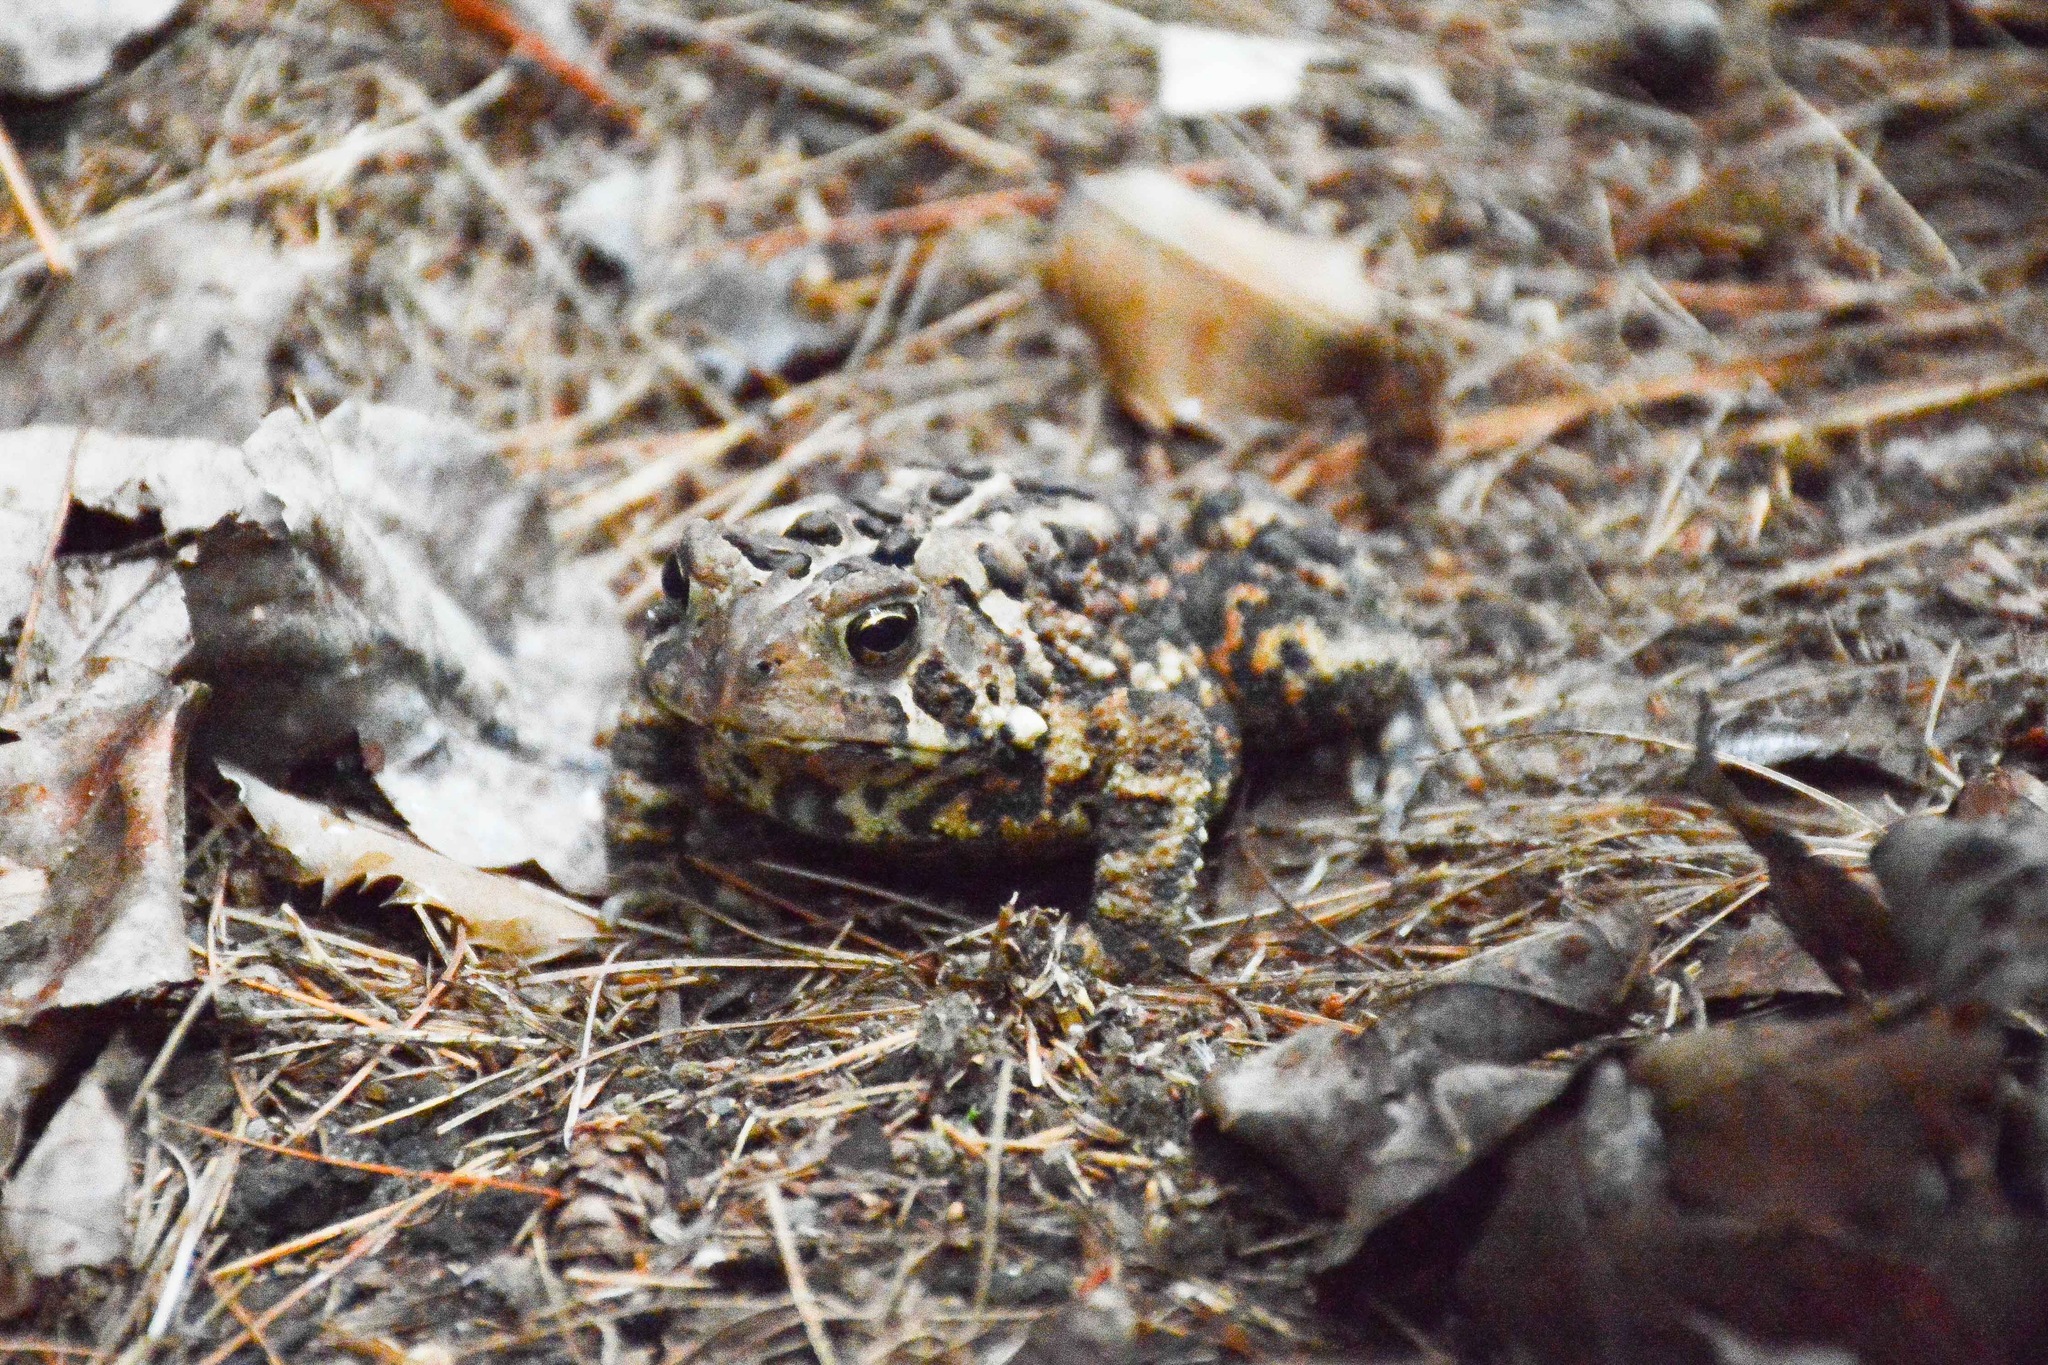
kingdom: Animalia
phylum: Chordata
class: Amphibia
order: Anura
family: Bufonidae
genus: Anaxyrus
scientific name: Anaxyrus americanus
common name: American toad
